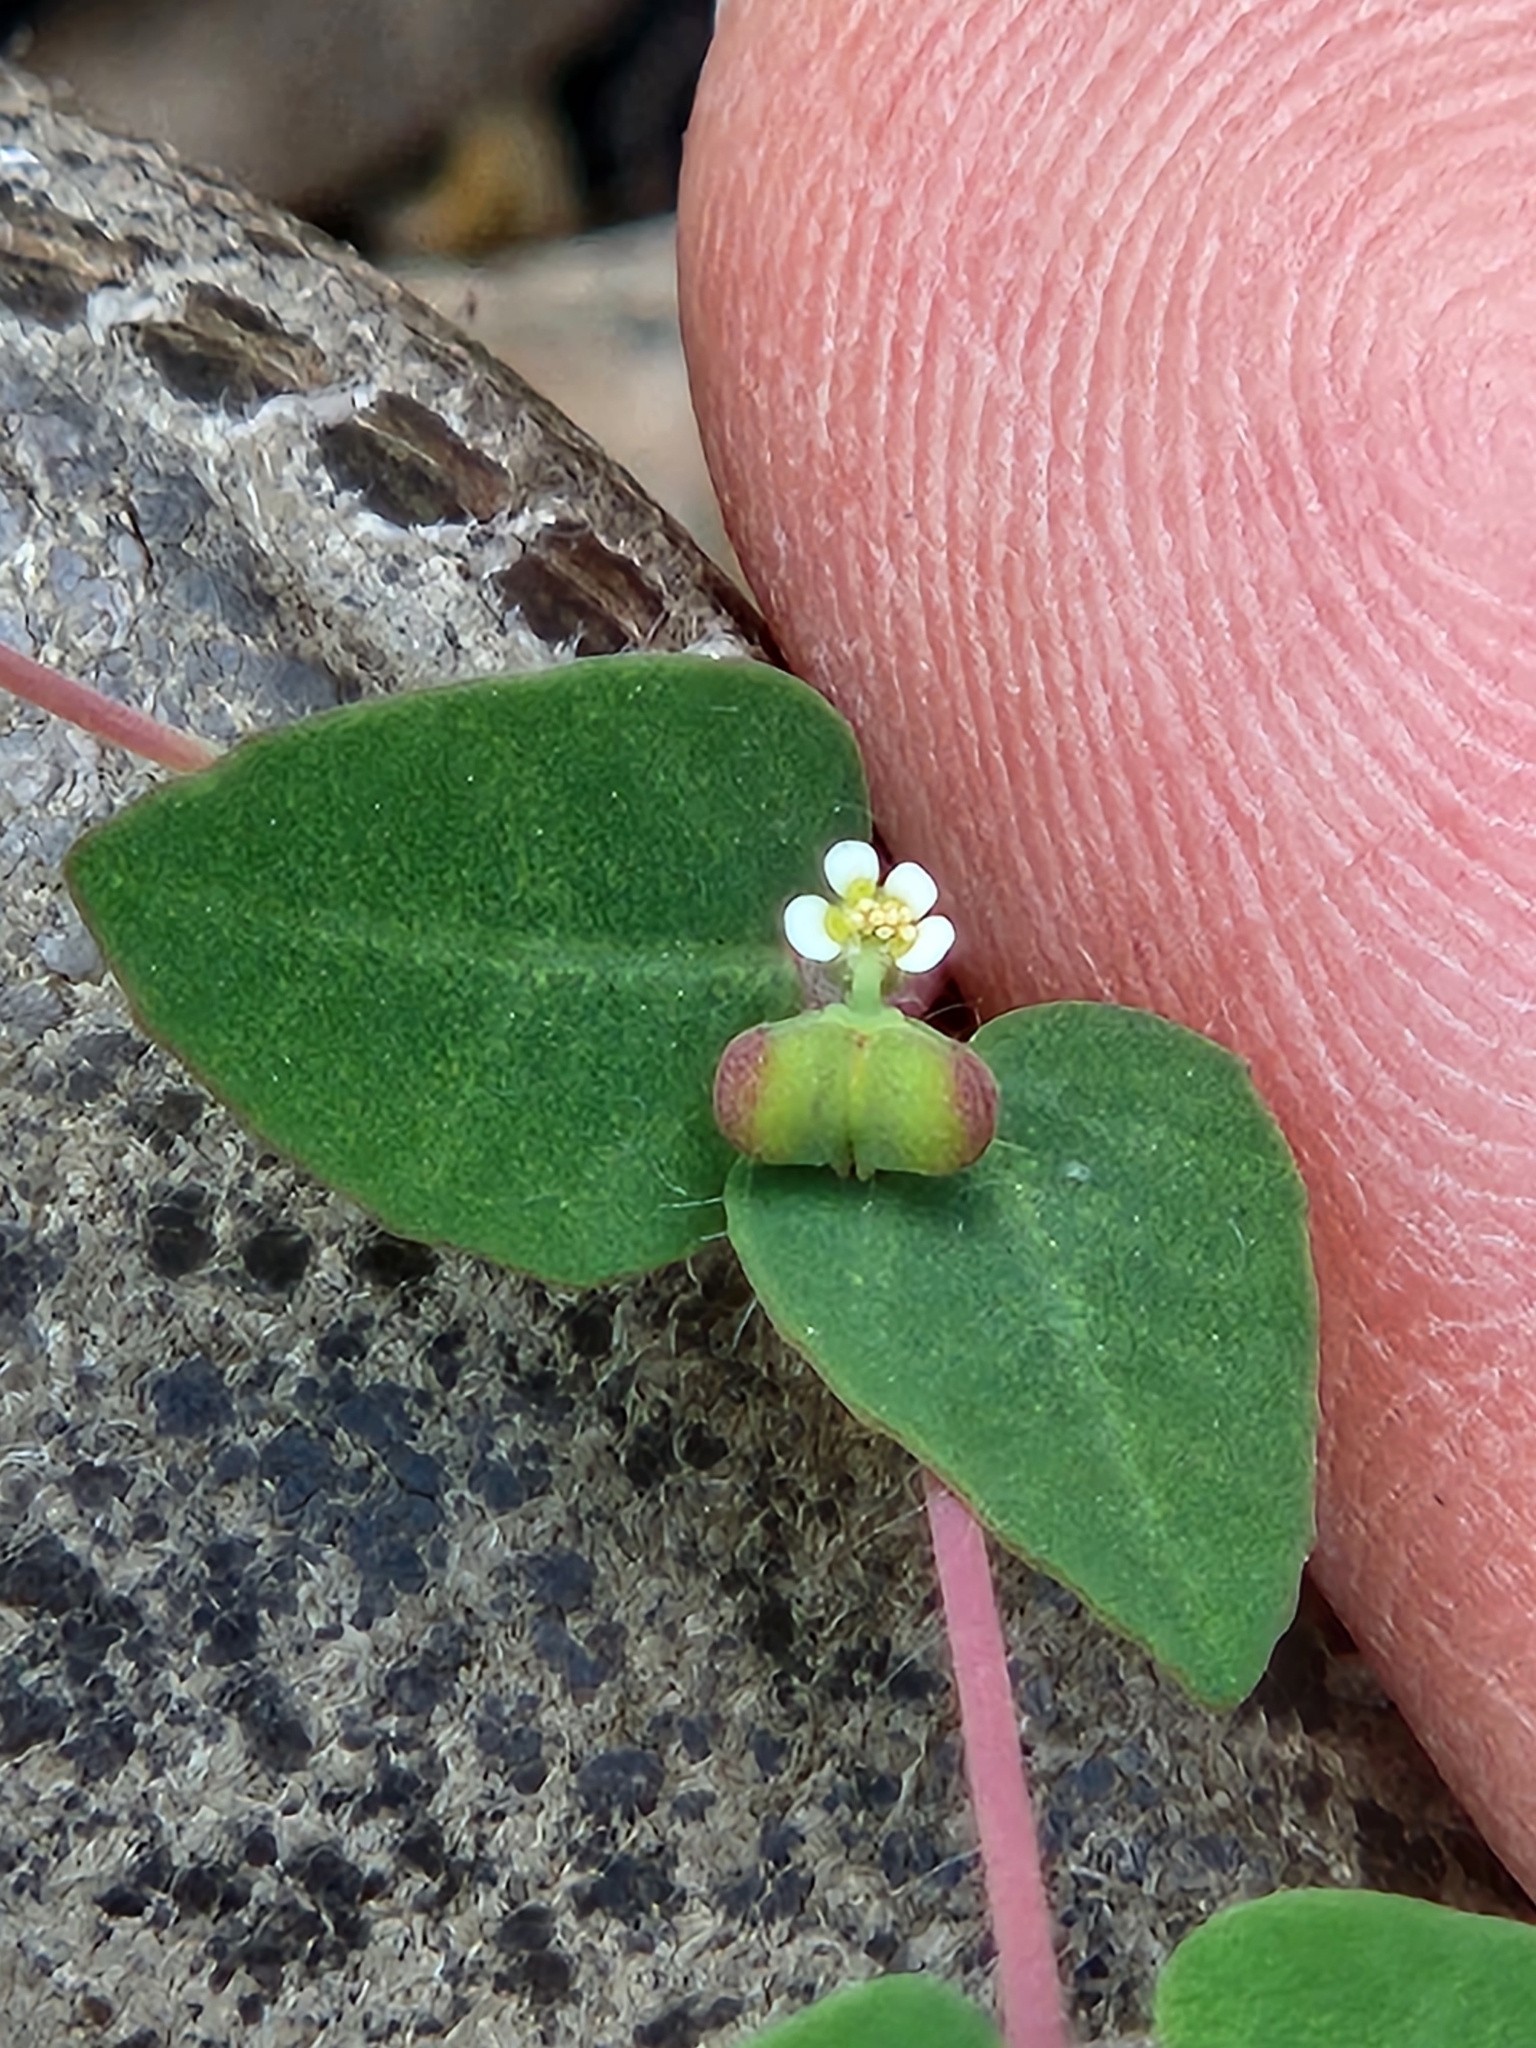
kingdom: Plantae
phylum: Tracheophyta
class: Magnoliopsida
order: Malpighiales
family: Euphorbiaceae
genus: Euphorbia
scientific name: Euphorbia villifera
